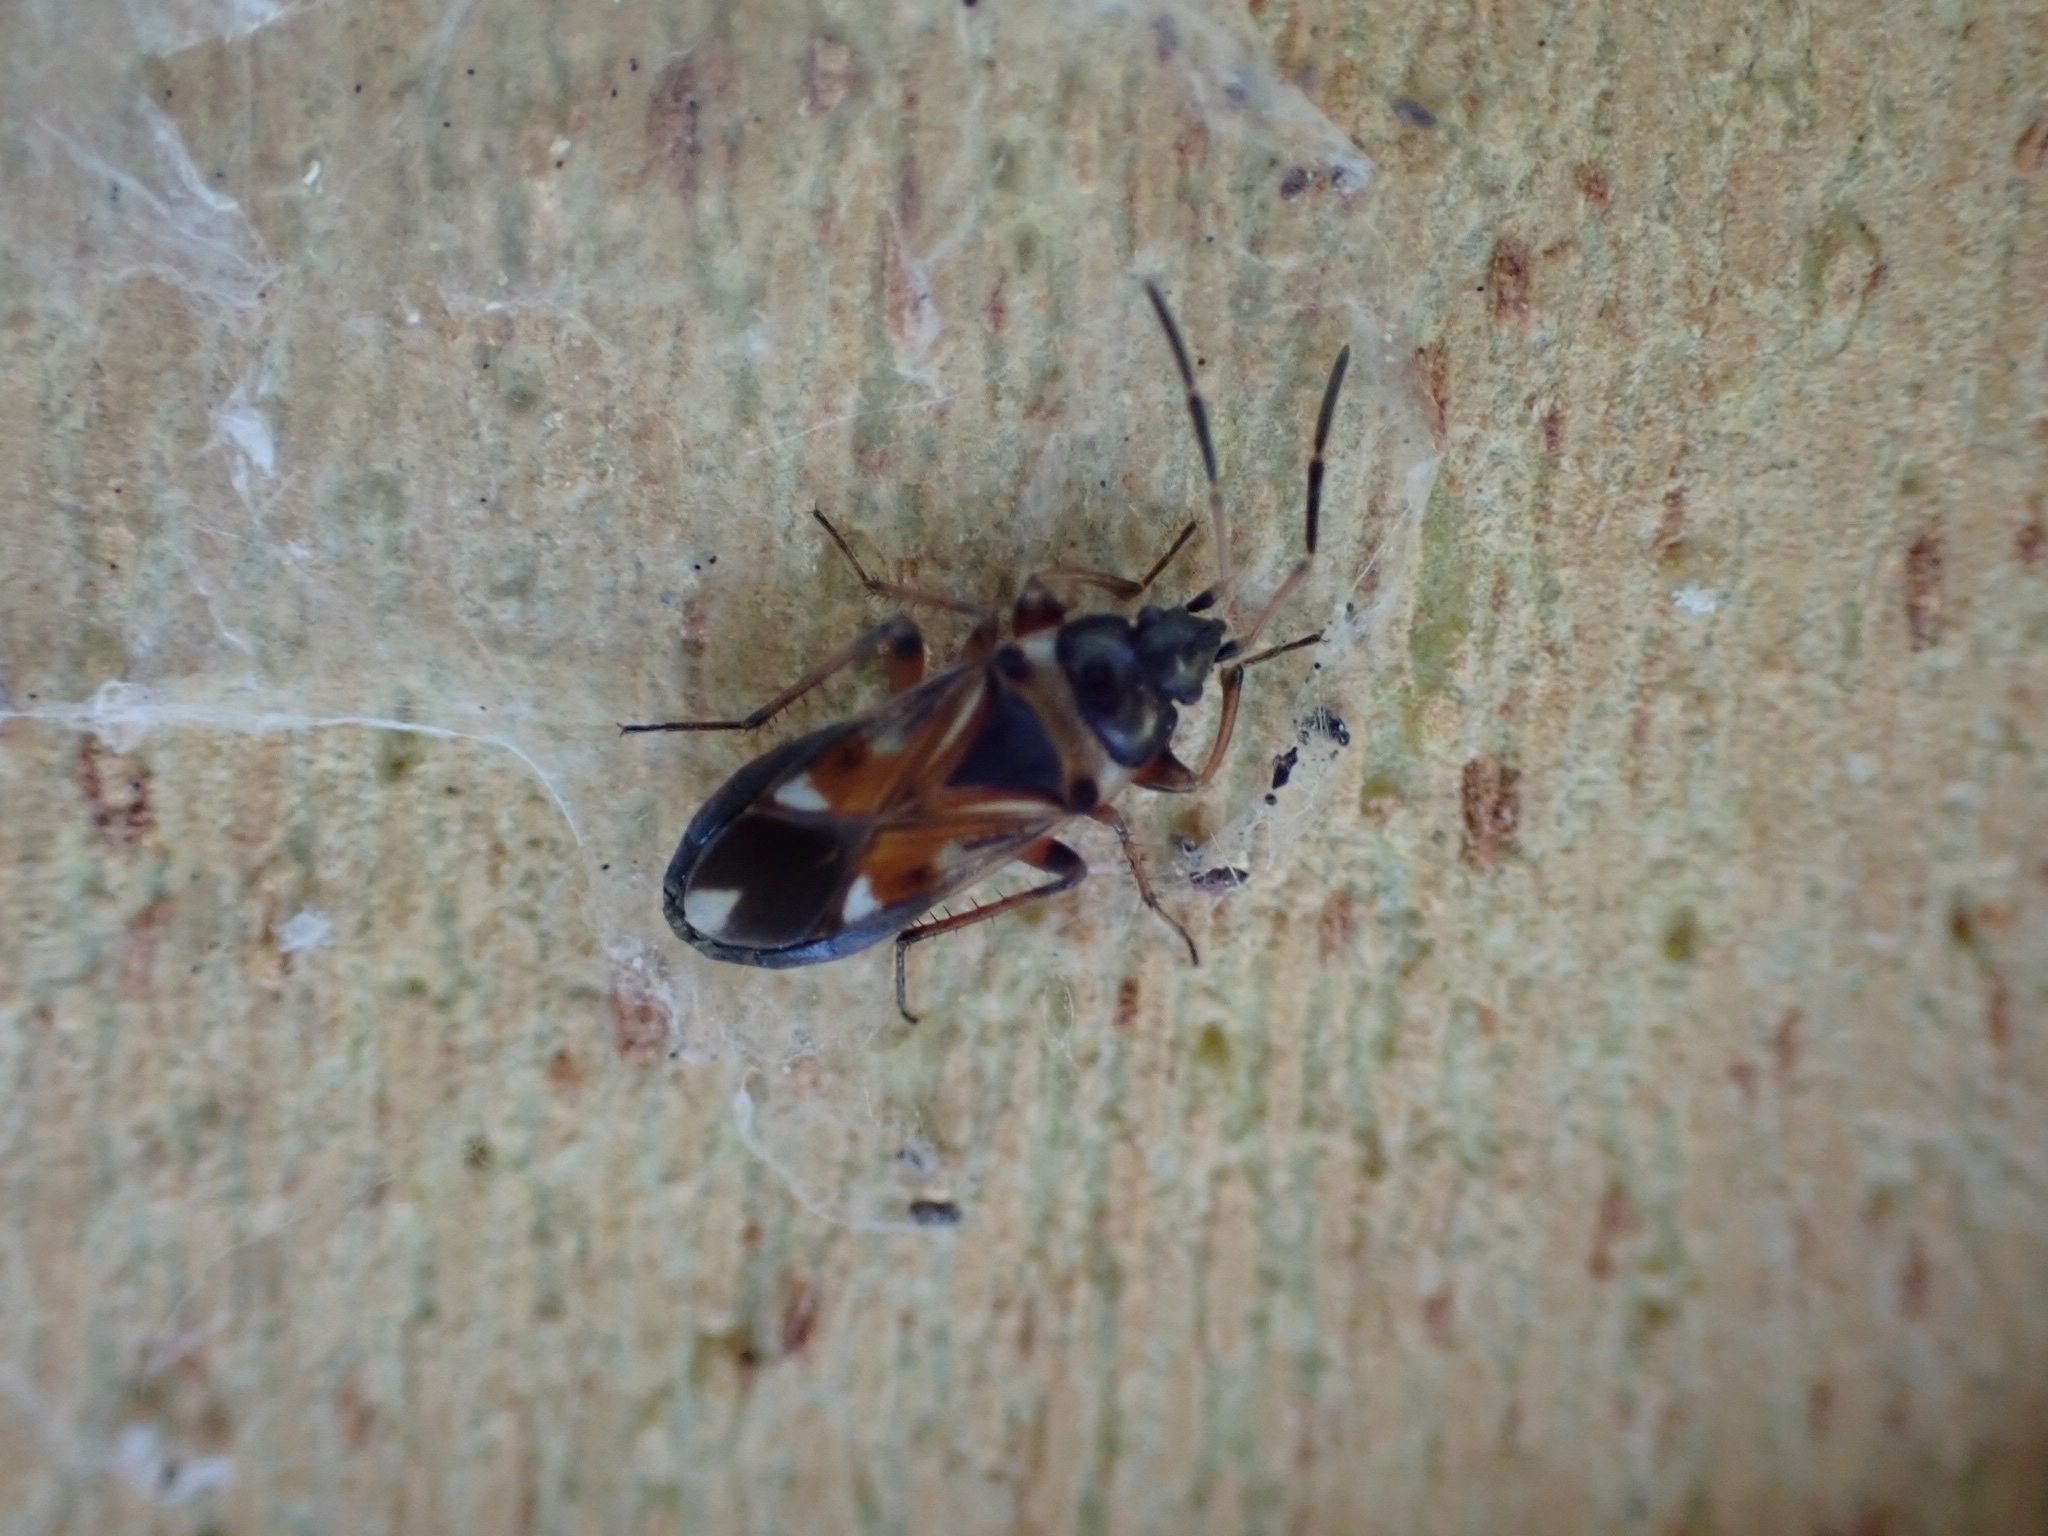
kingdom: Animalia
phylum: Arthropoda
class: Insecta
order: Hemiptera
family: Rhyparochromidae
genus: Raglius
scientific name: Raglius alboacuminatus
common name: Dirt-colored seed bug
